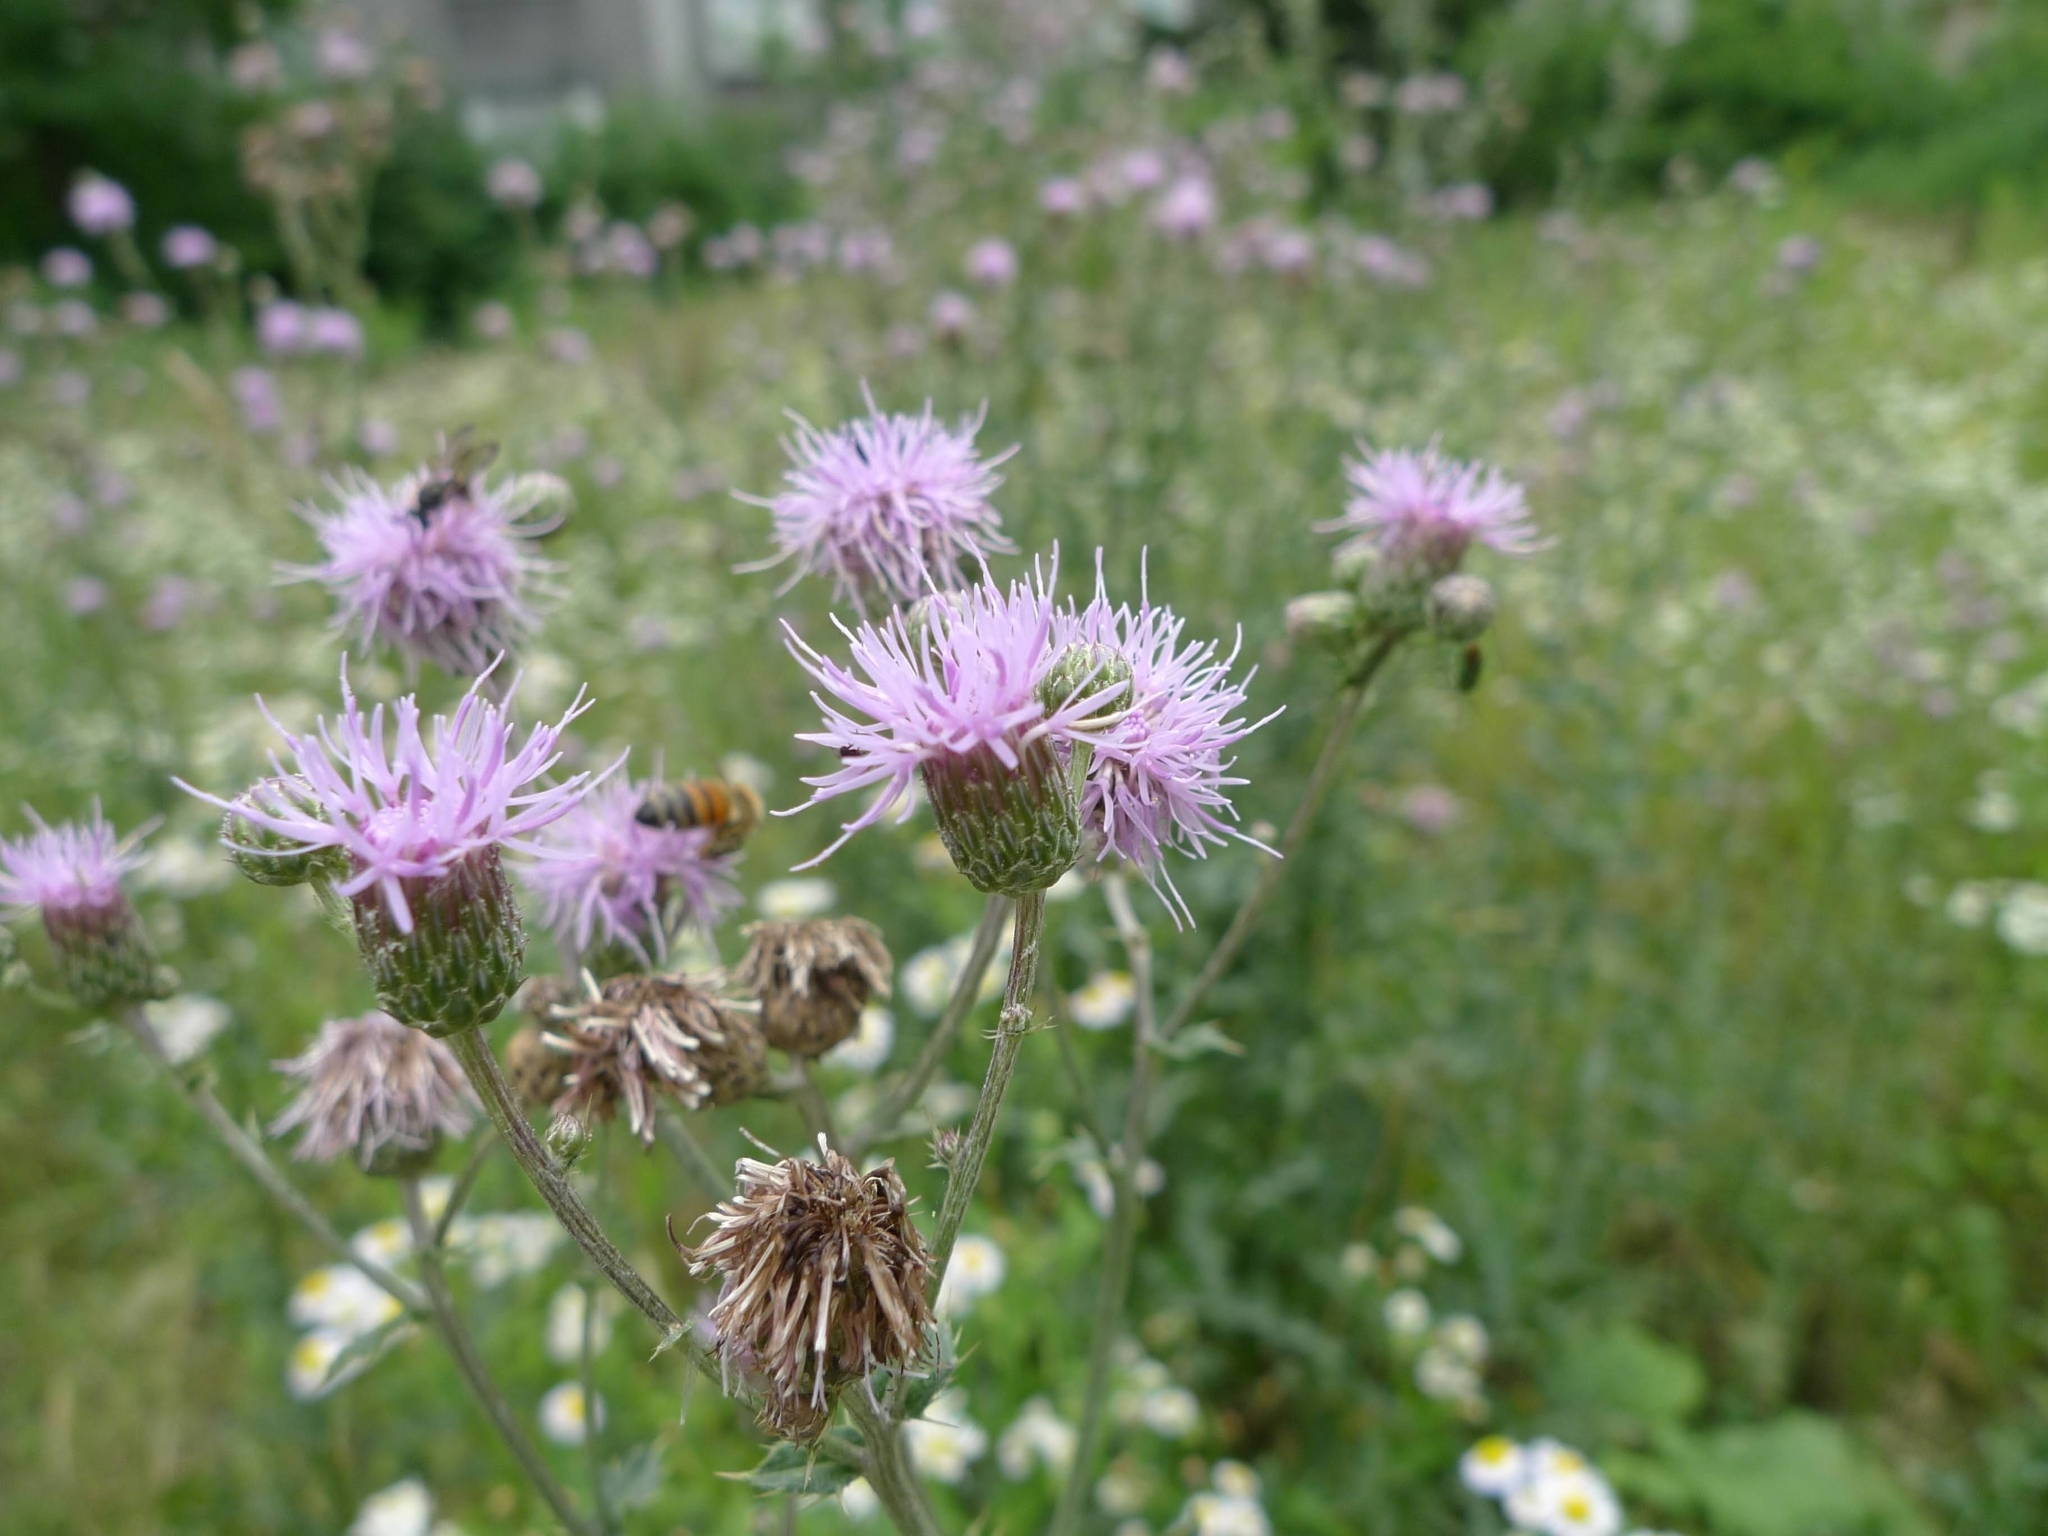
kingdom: Plantae
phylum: Tracheophyta
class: Magnoliopsida
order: Asterales
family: Asteraceae
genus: Cirsium
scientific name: Cirsium arvense
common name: Creeping thistle
